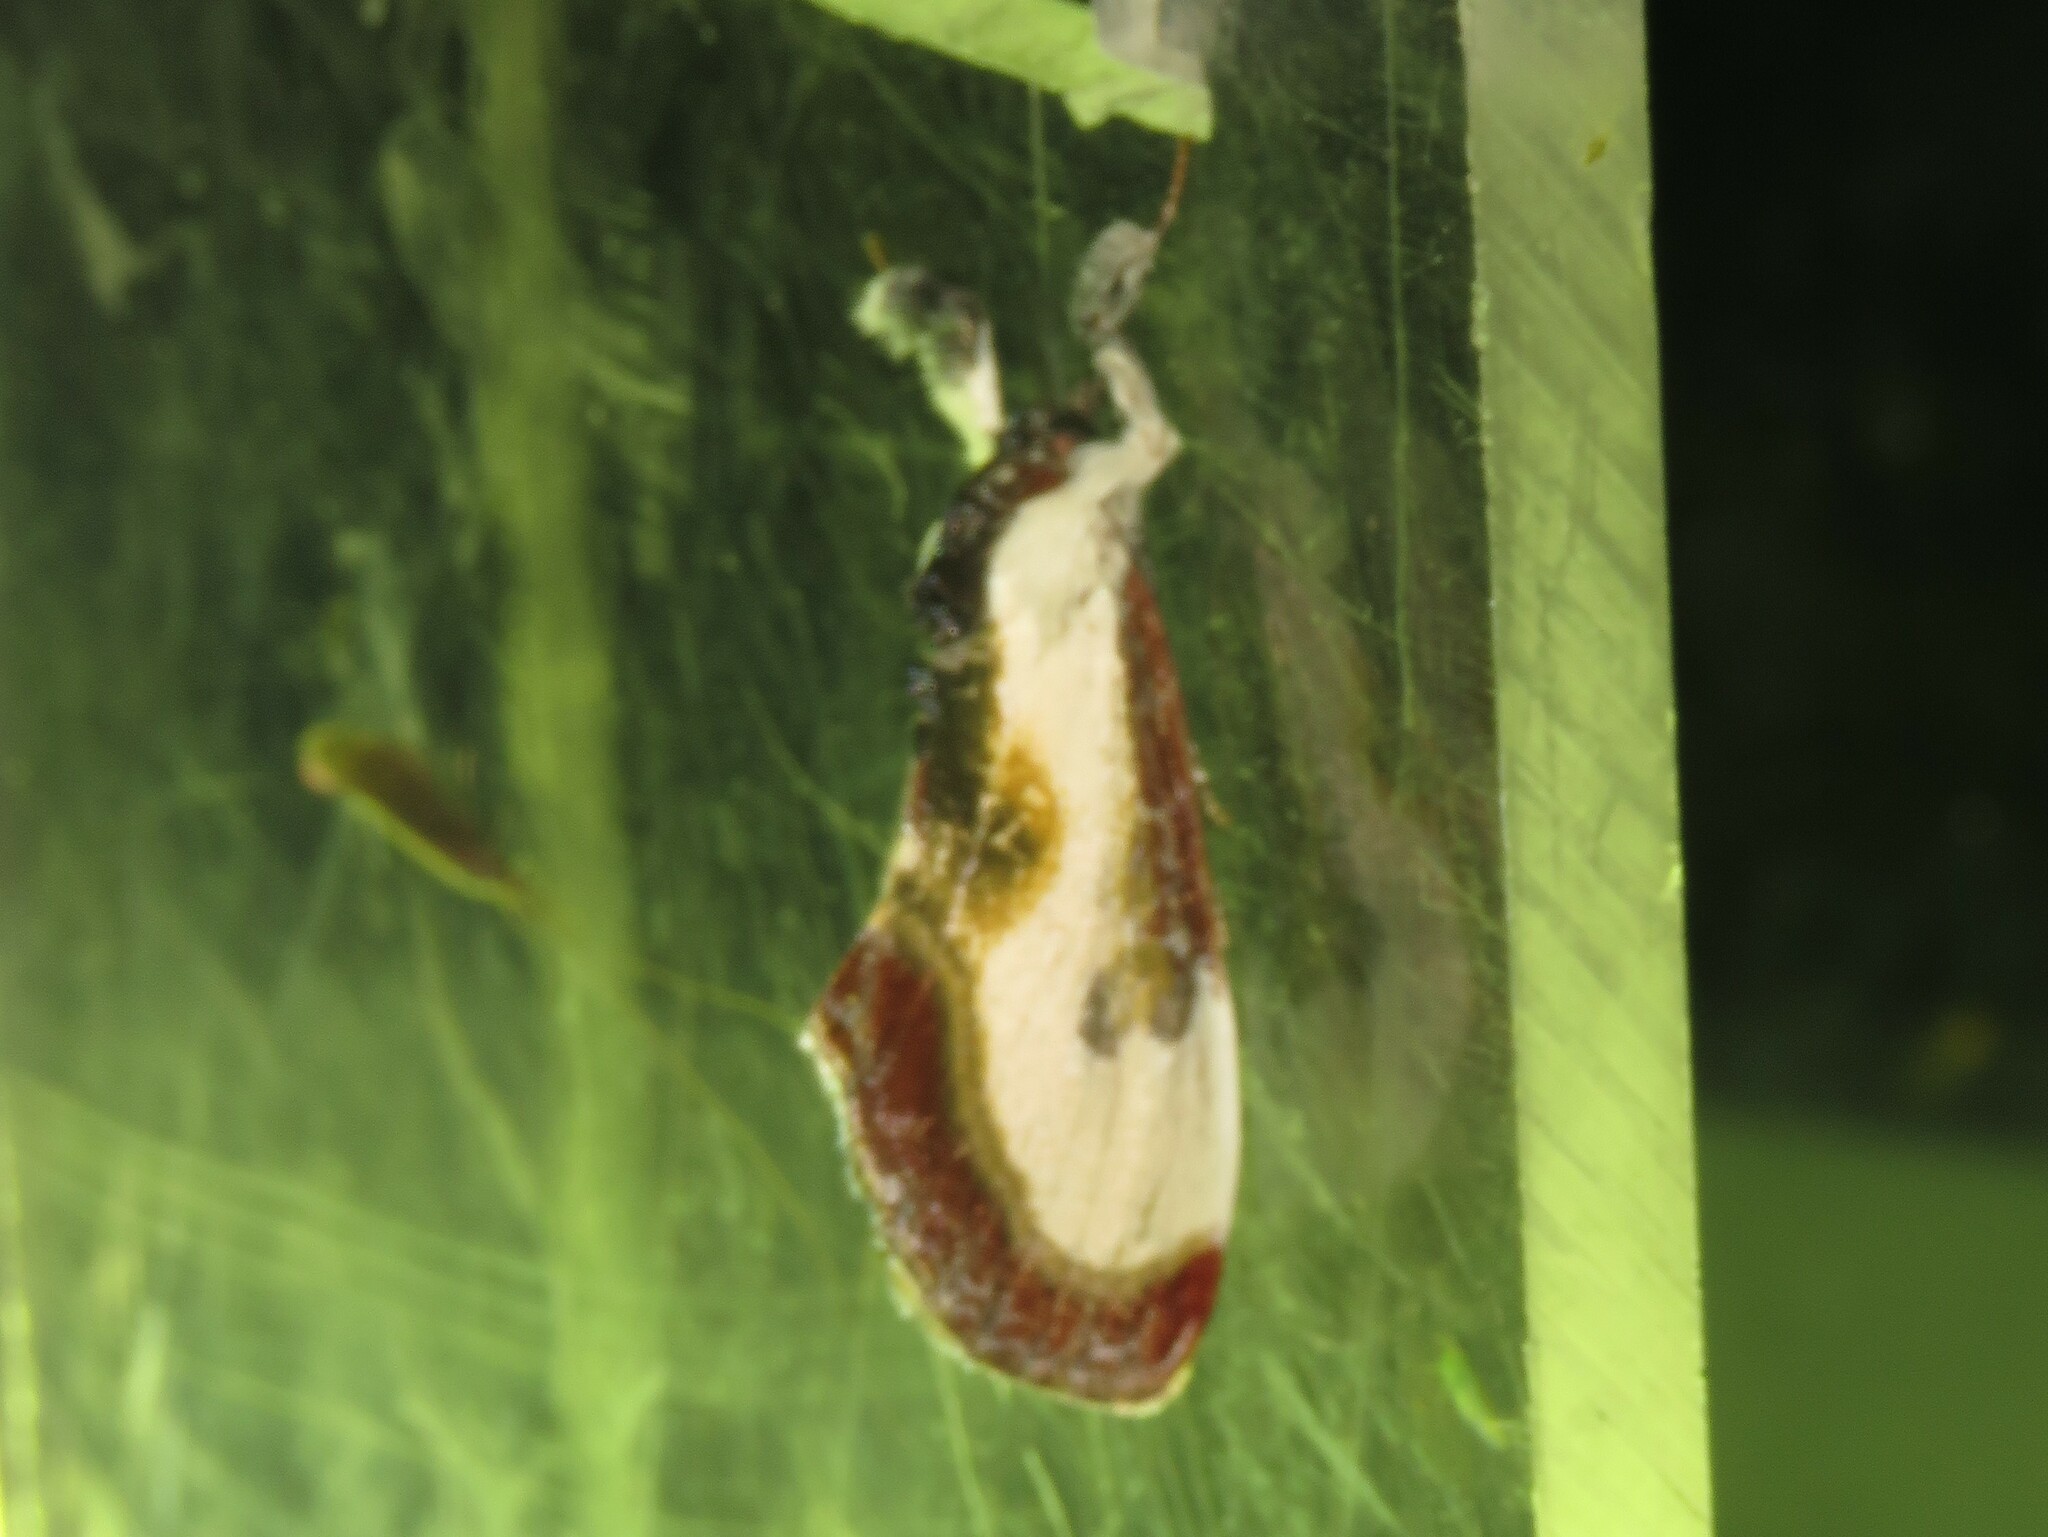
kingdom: Animalia
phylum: Arthropoda
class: Insecta
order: Lepidoptera
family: Noctuidae
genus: Eudryas
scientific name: Eudryas grata
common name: Beautiful wood-nymph
